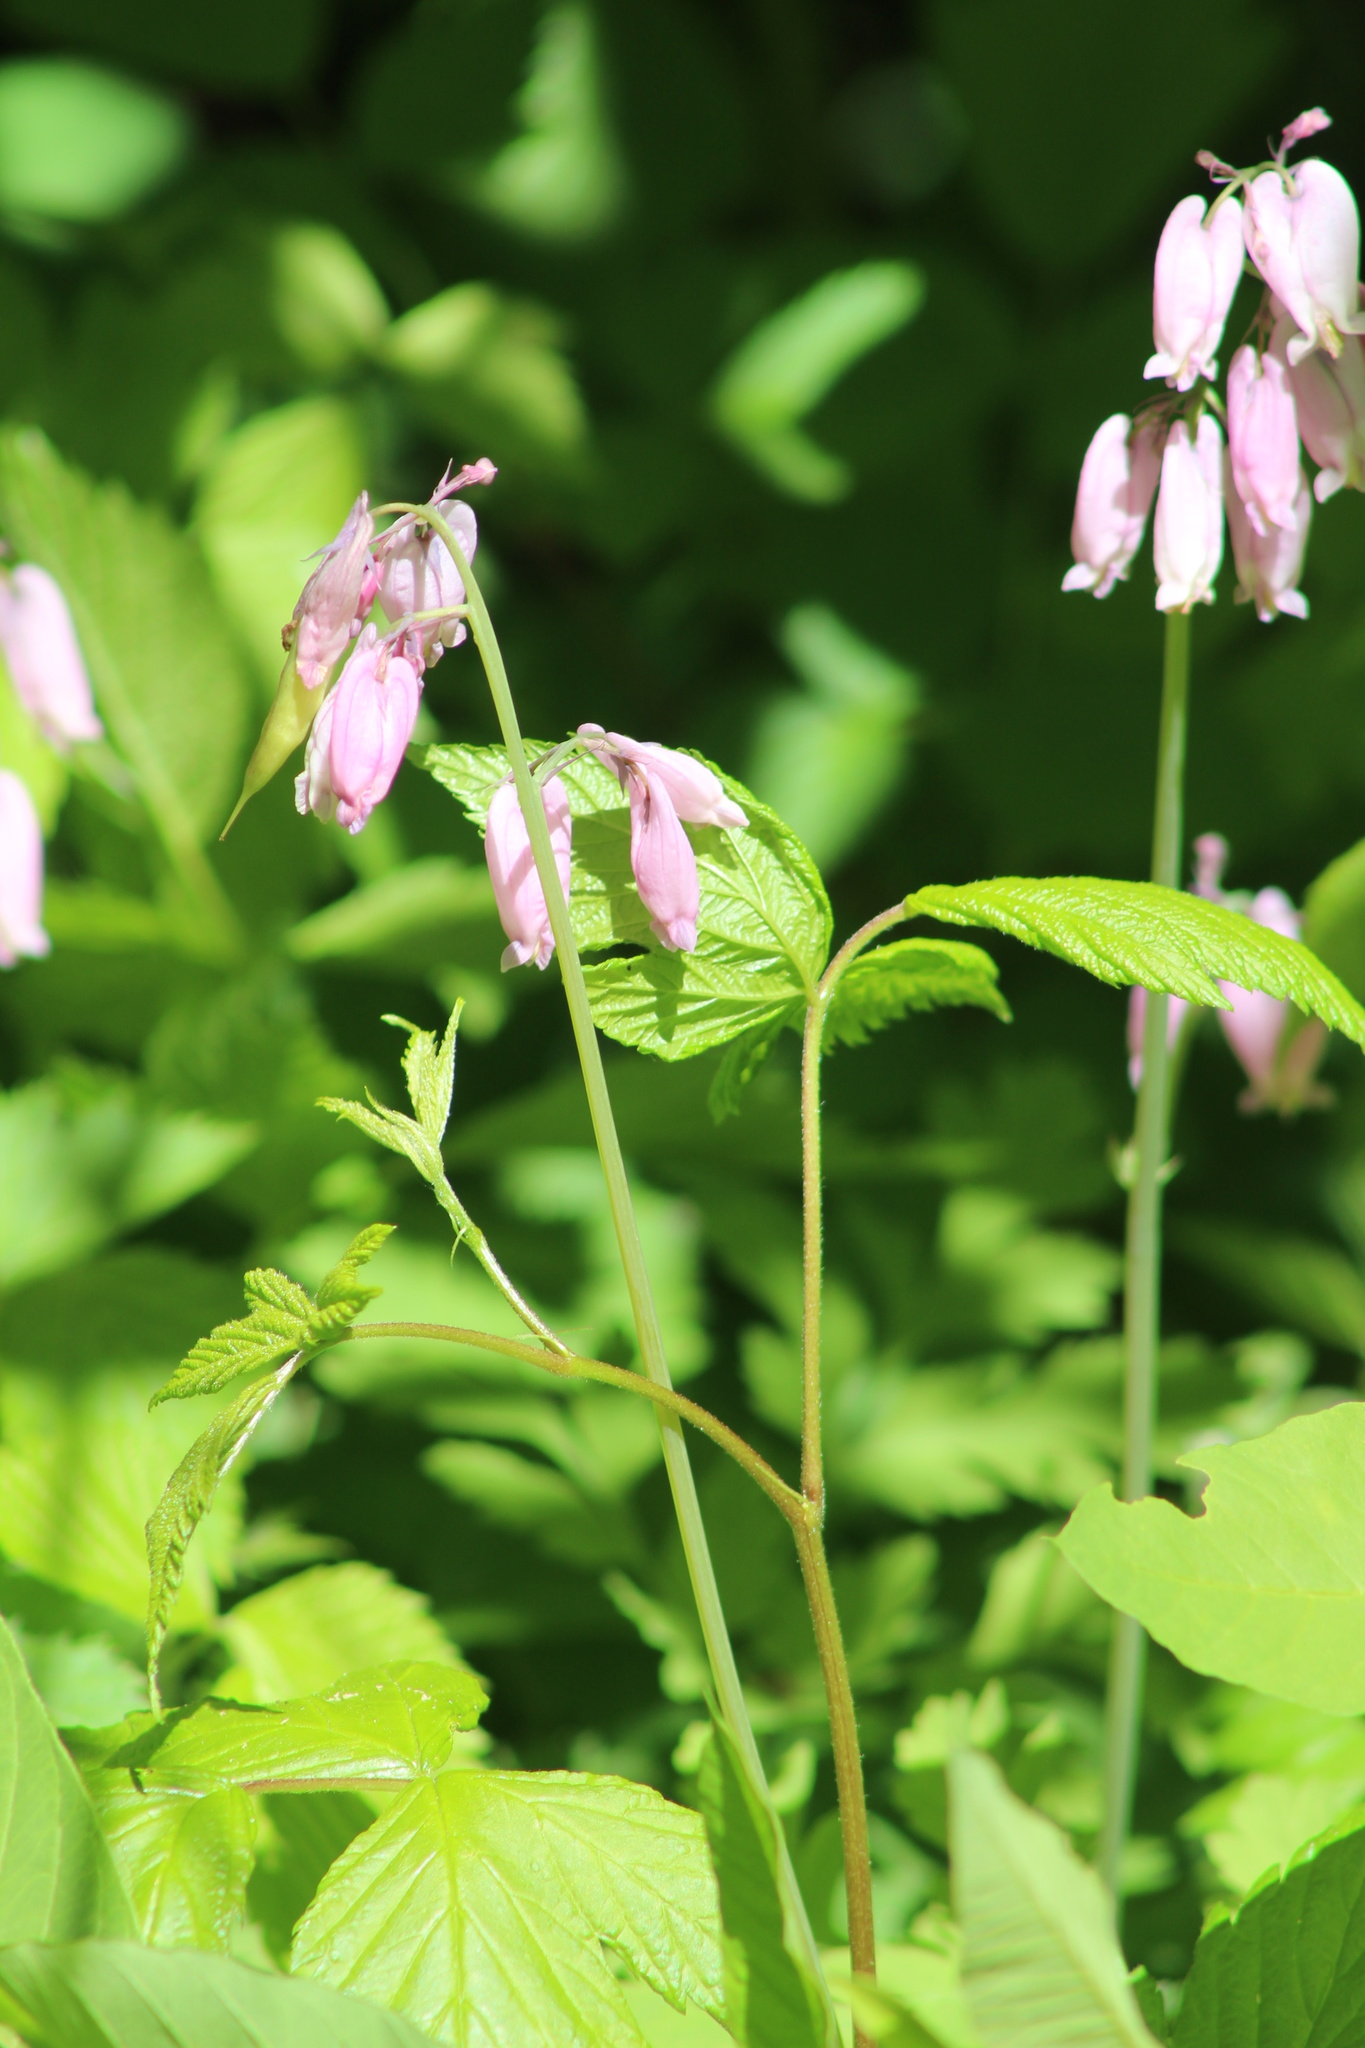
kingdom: Plantae
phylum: Tracheophyta
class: Magnoliopsida
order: Ranunculales
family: Papaveraceae
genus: Dicentra
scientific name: Dicentra formosa
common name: Bleeding-heart
